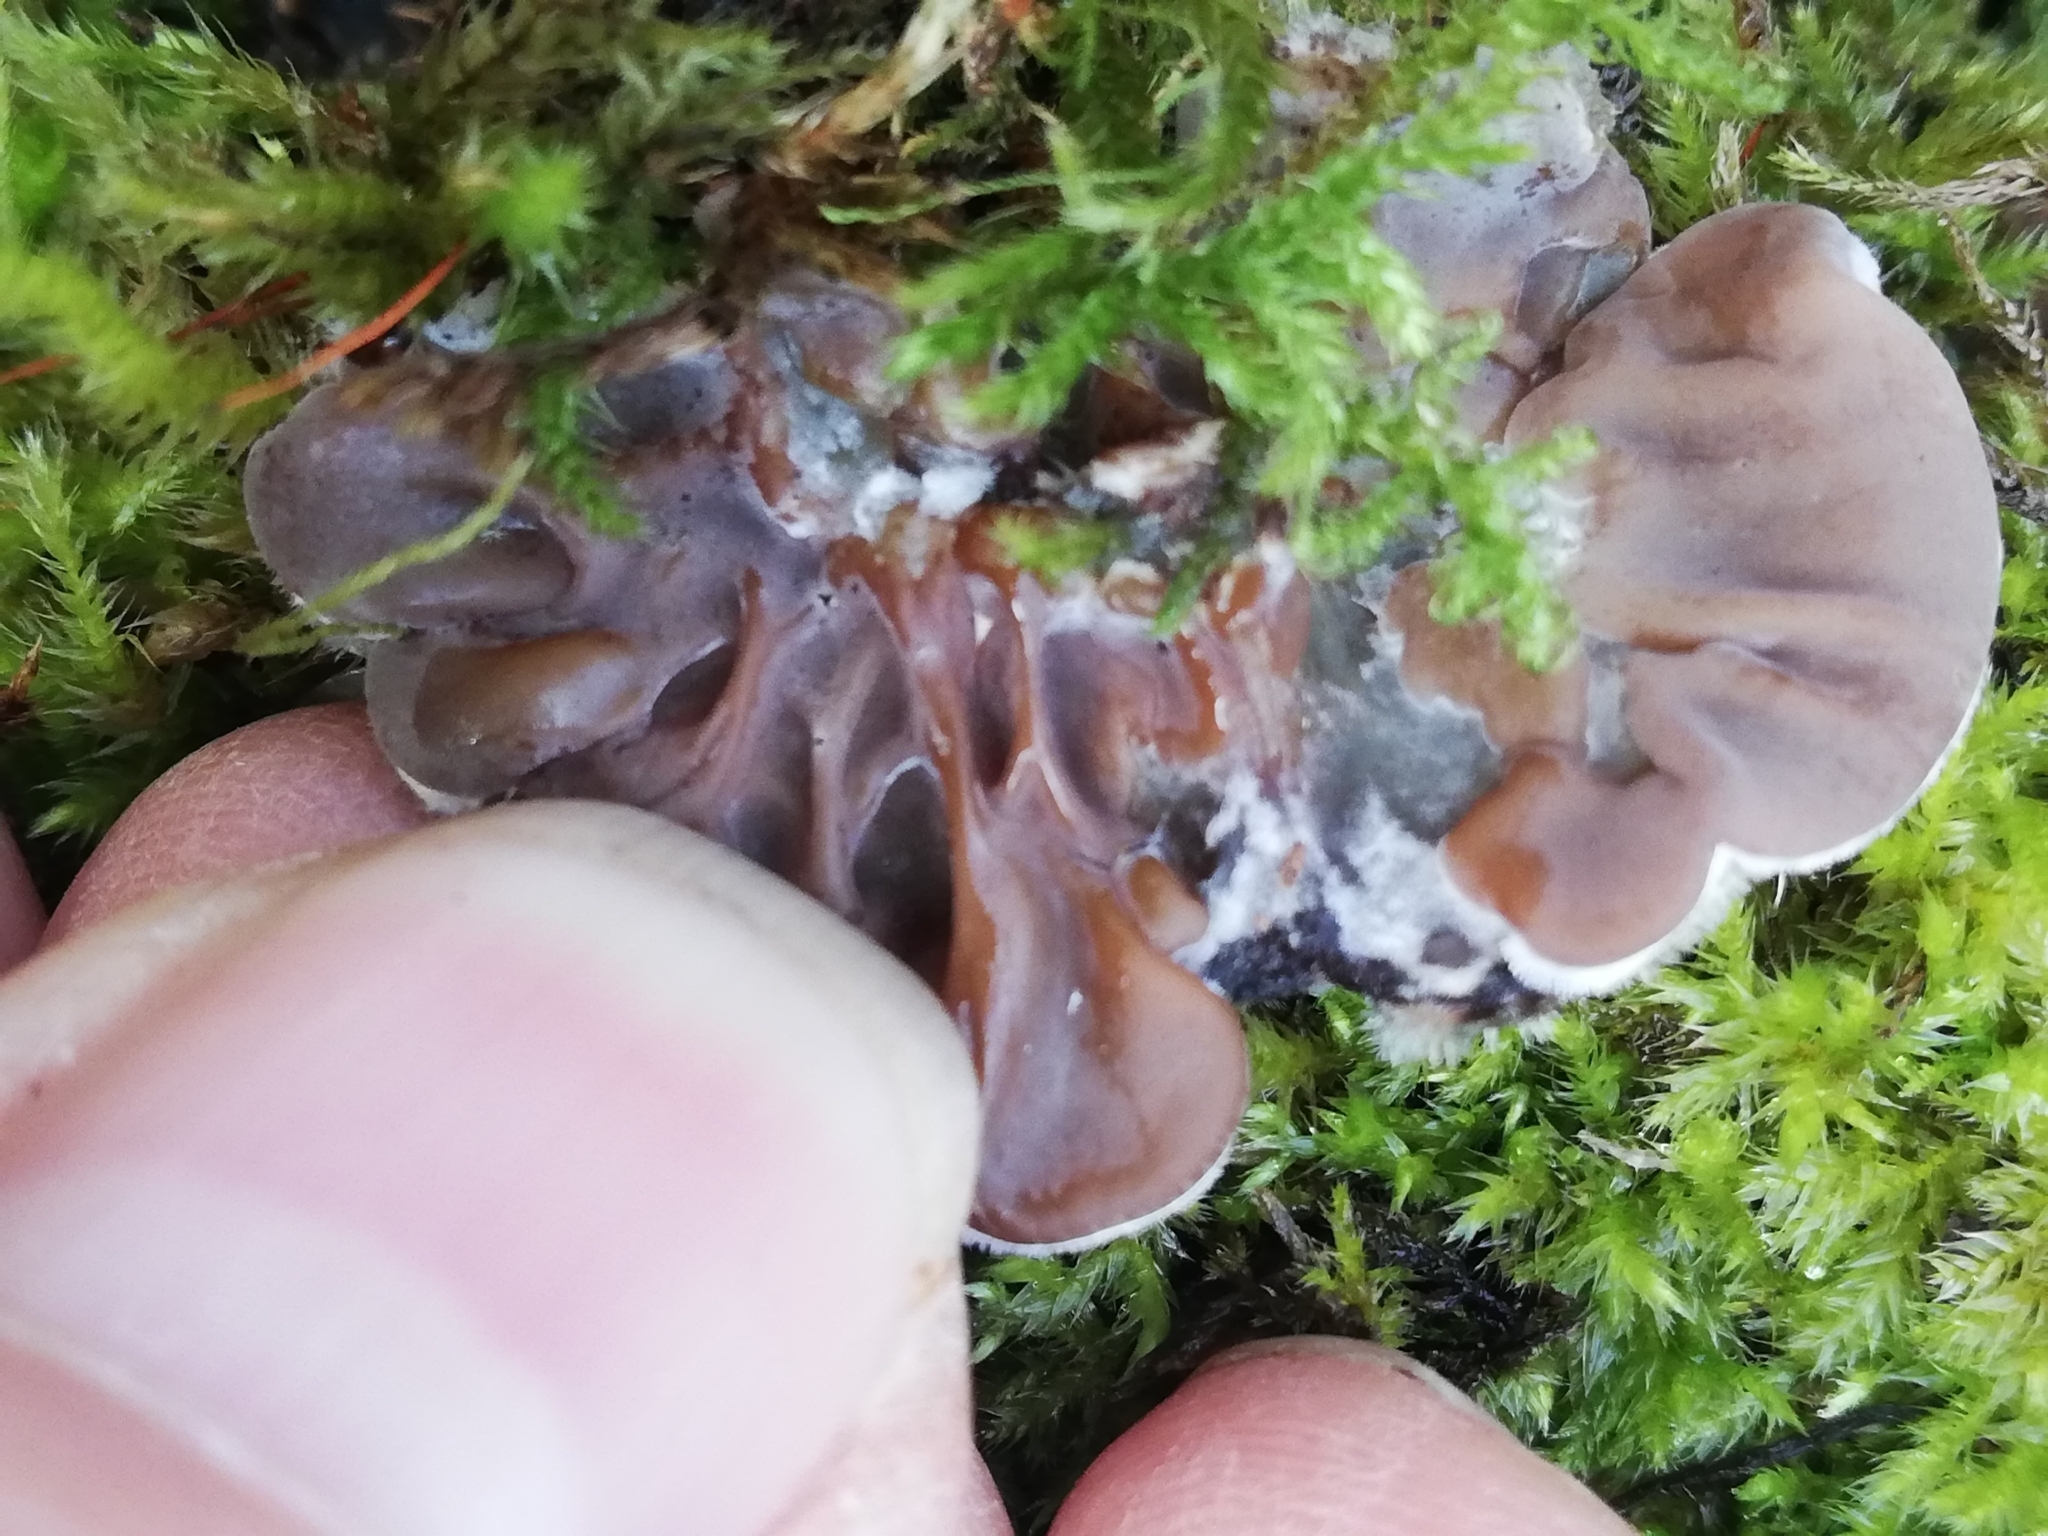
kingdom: Fungi
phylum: Basidiomycota
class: Agaricomycetes
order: Auriculariales
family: Auriculariaceae
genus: Auricularia
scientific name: Auricularia mesenterica
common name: Tripe fungus
